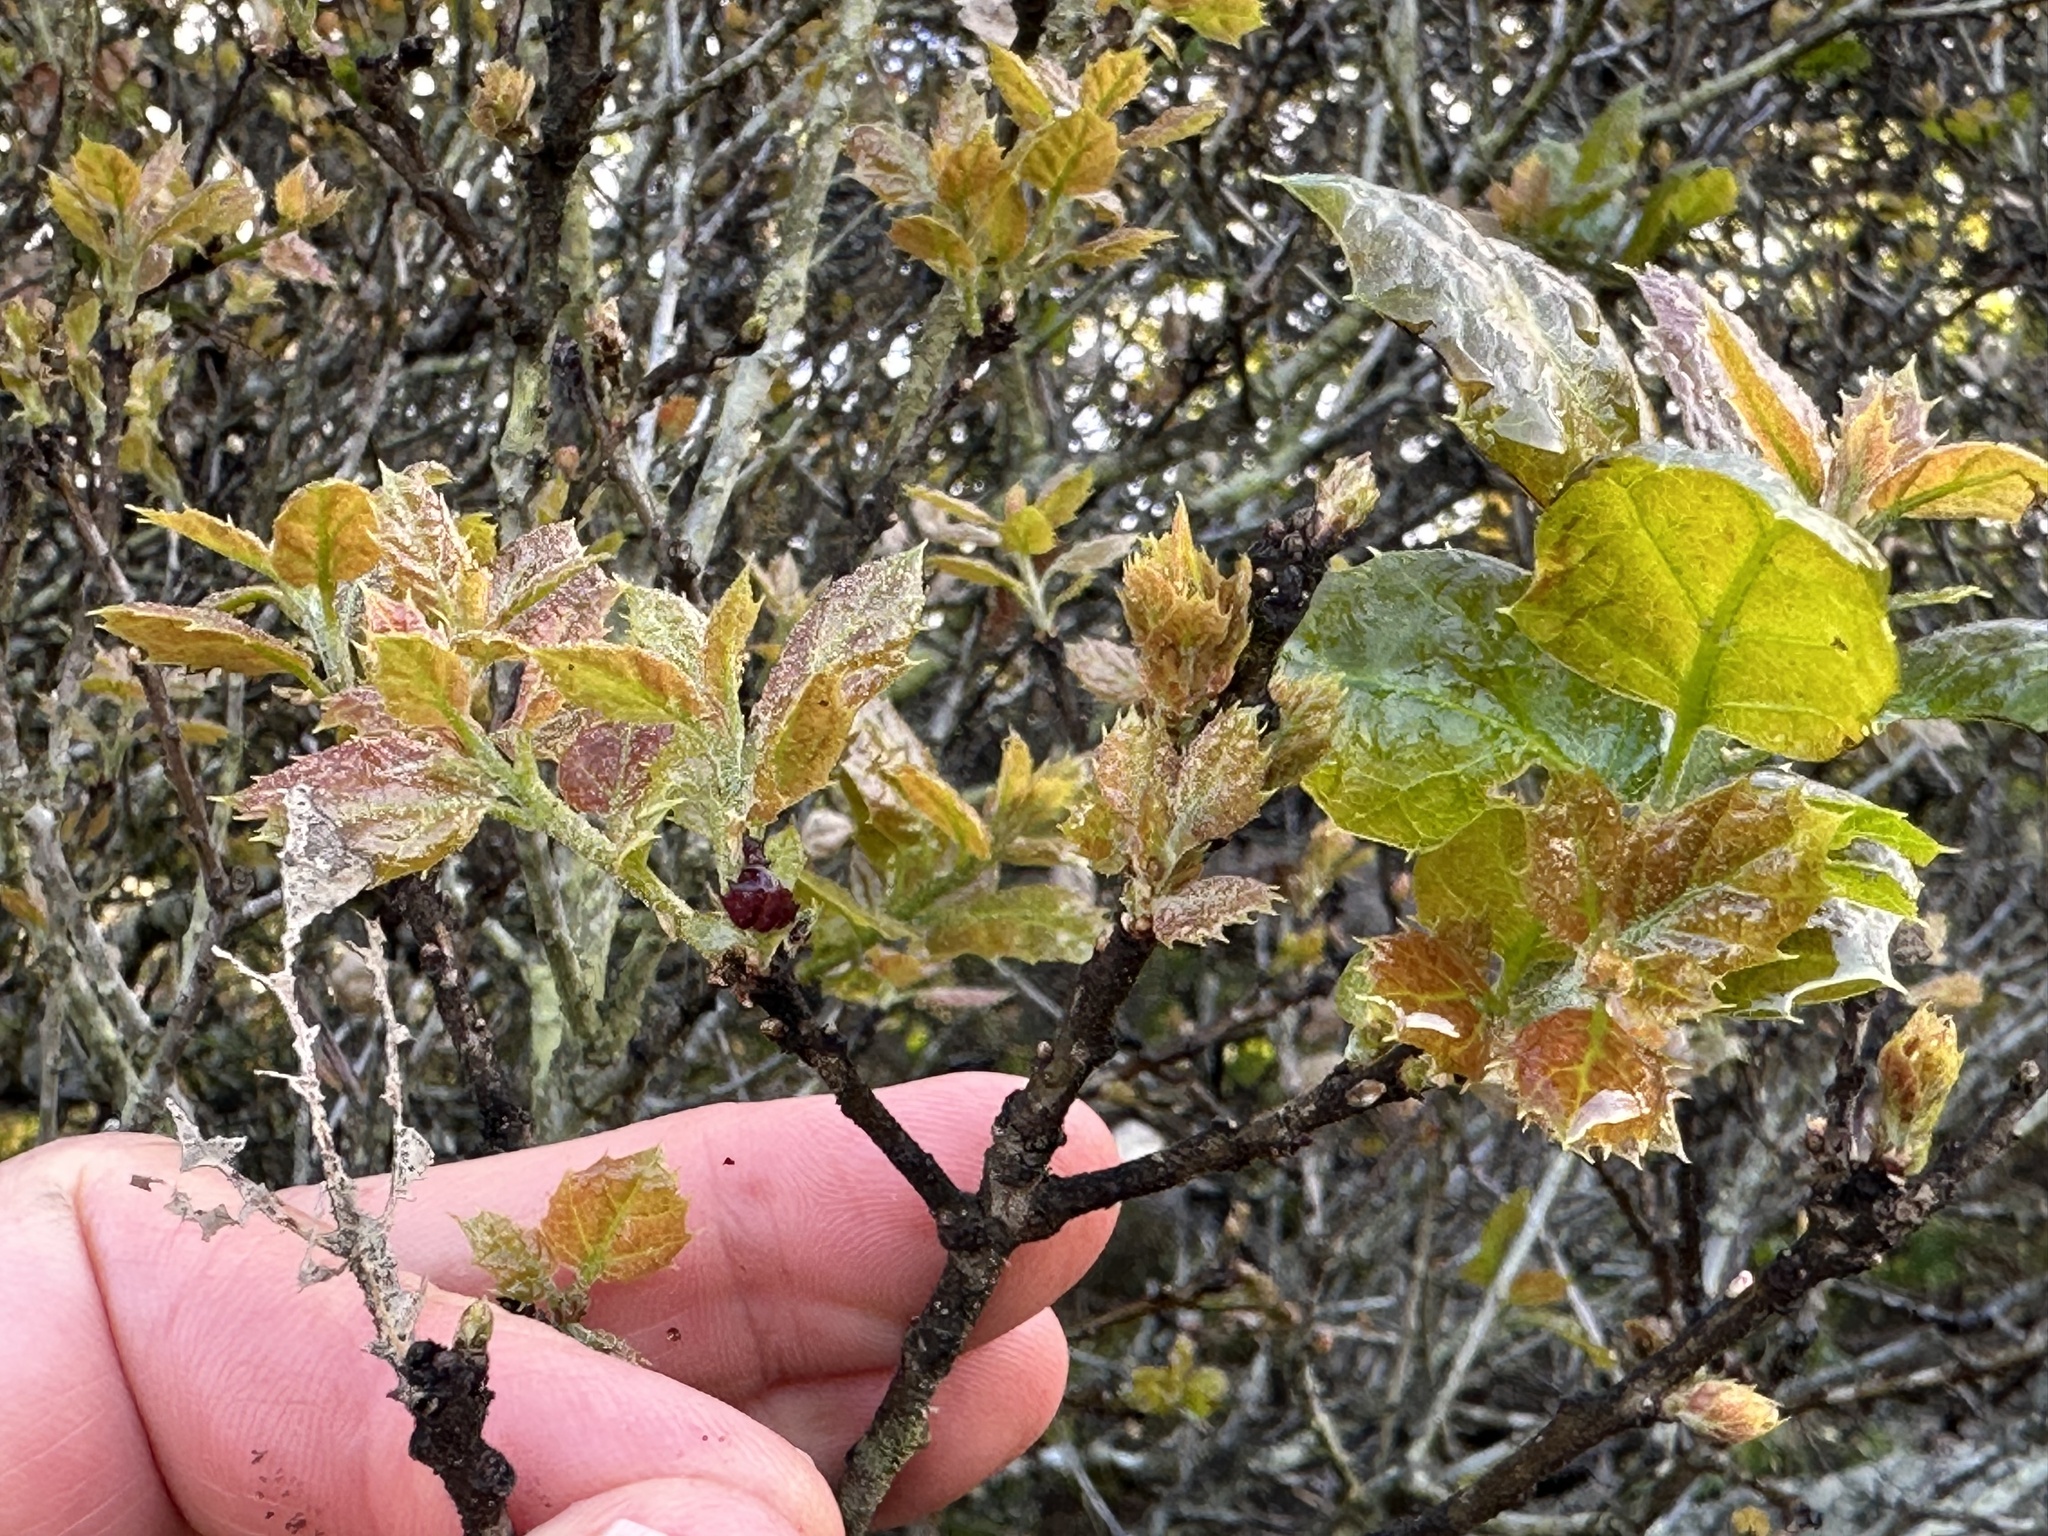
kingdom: Animalia
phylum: Arthropoda
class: Insecta
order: Hymenoptera
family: Cynipidae
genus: Dryocosmus
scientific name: Dryocosmus
